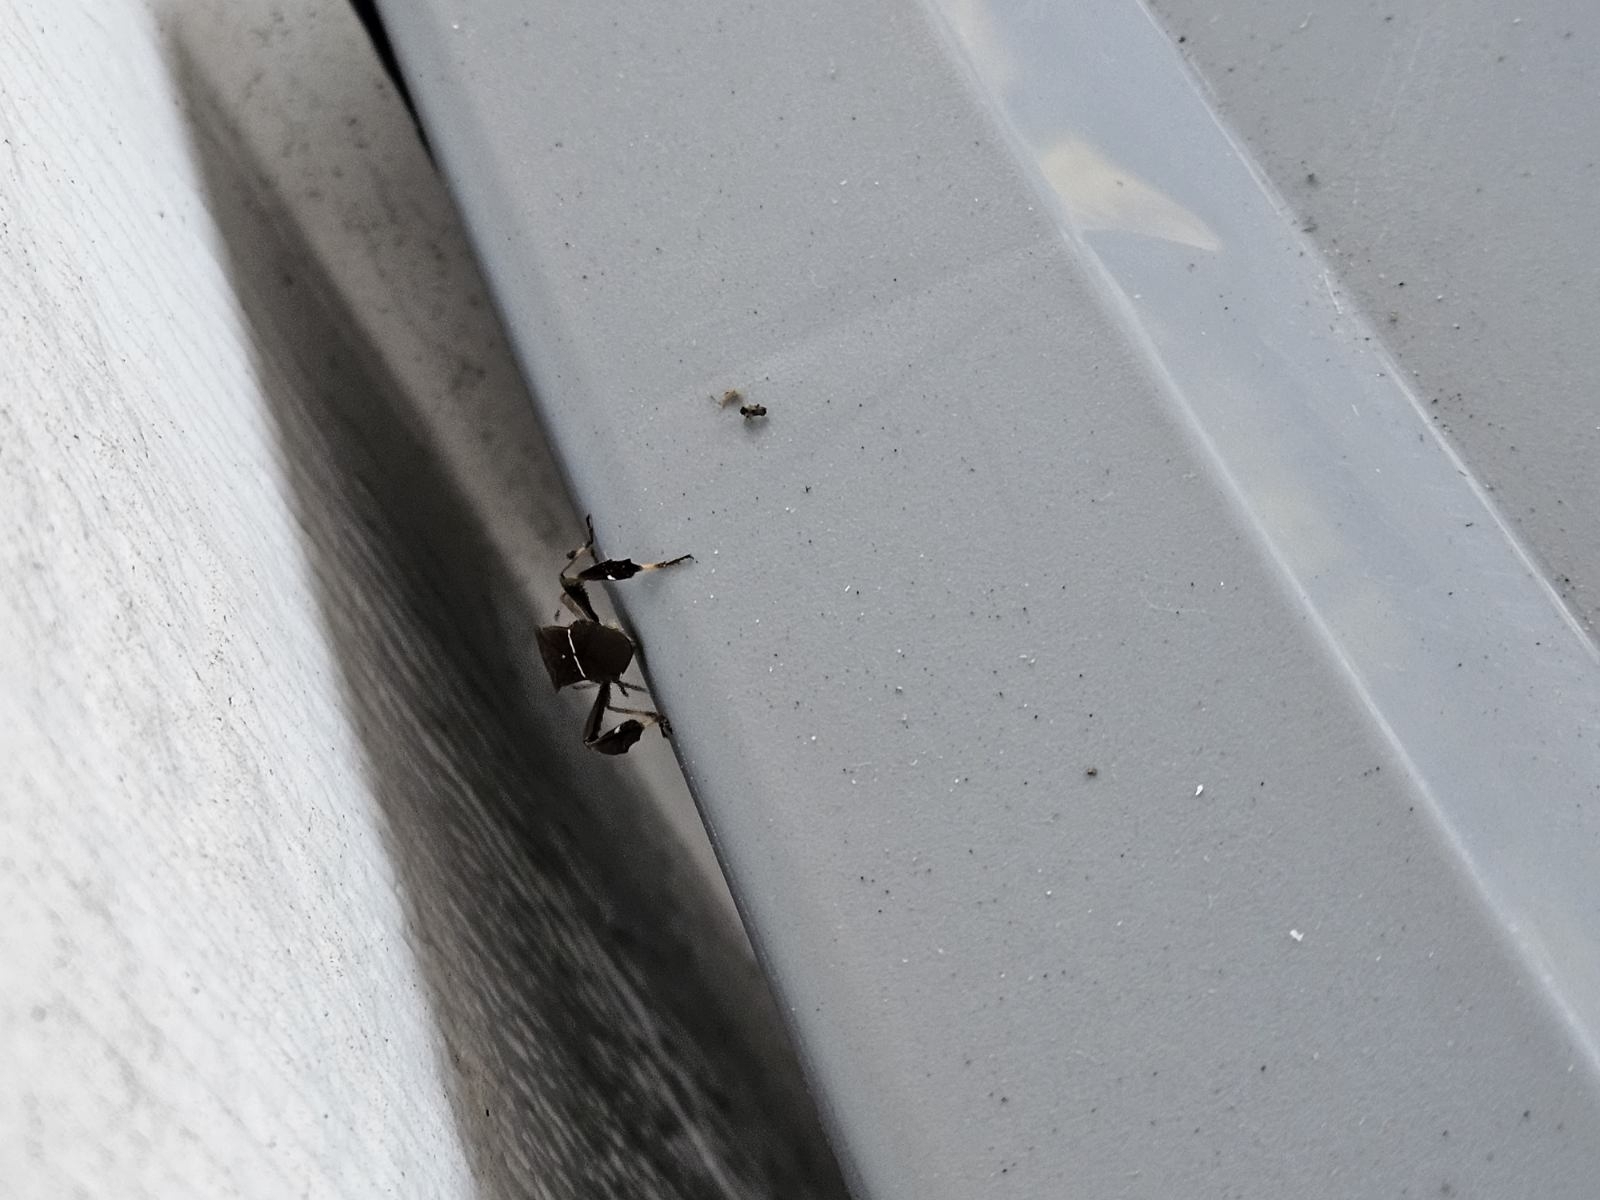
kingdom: Animalia
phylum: Arthropoda
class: Insecta
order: Hemiptera
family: Coreidae
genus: Leptoglossus
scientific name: Leptoglossus phyllopus
